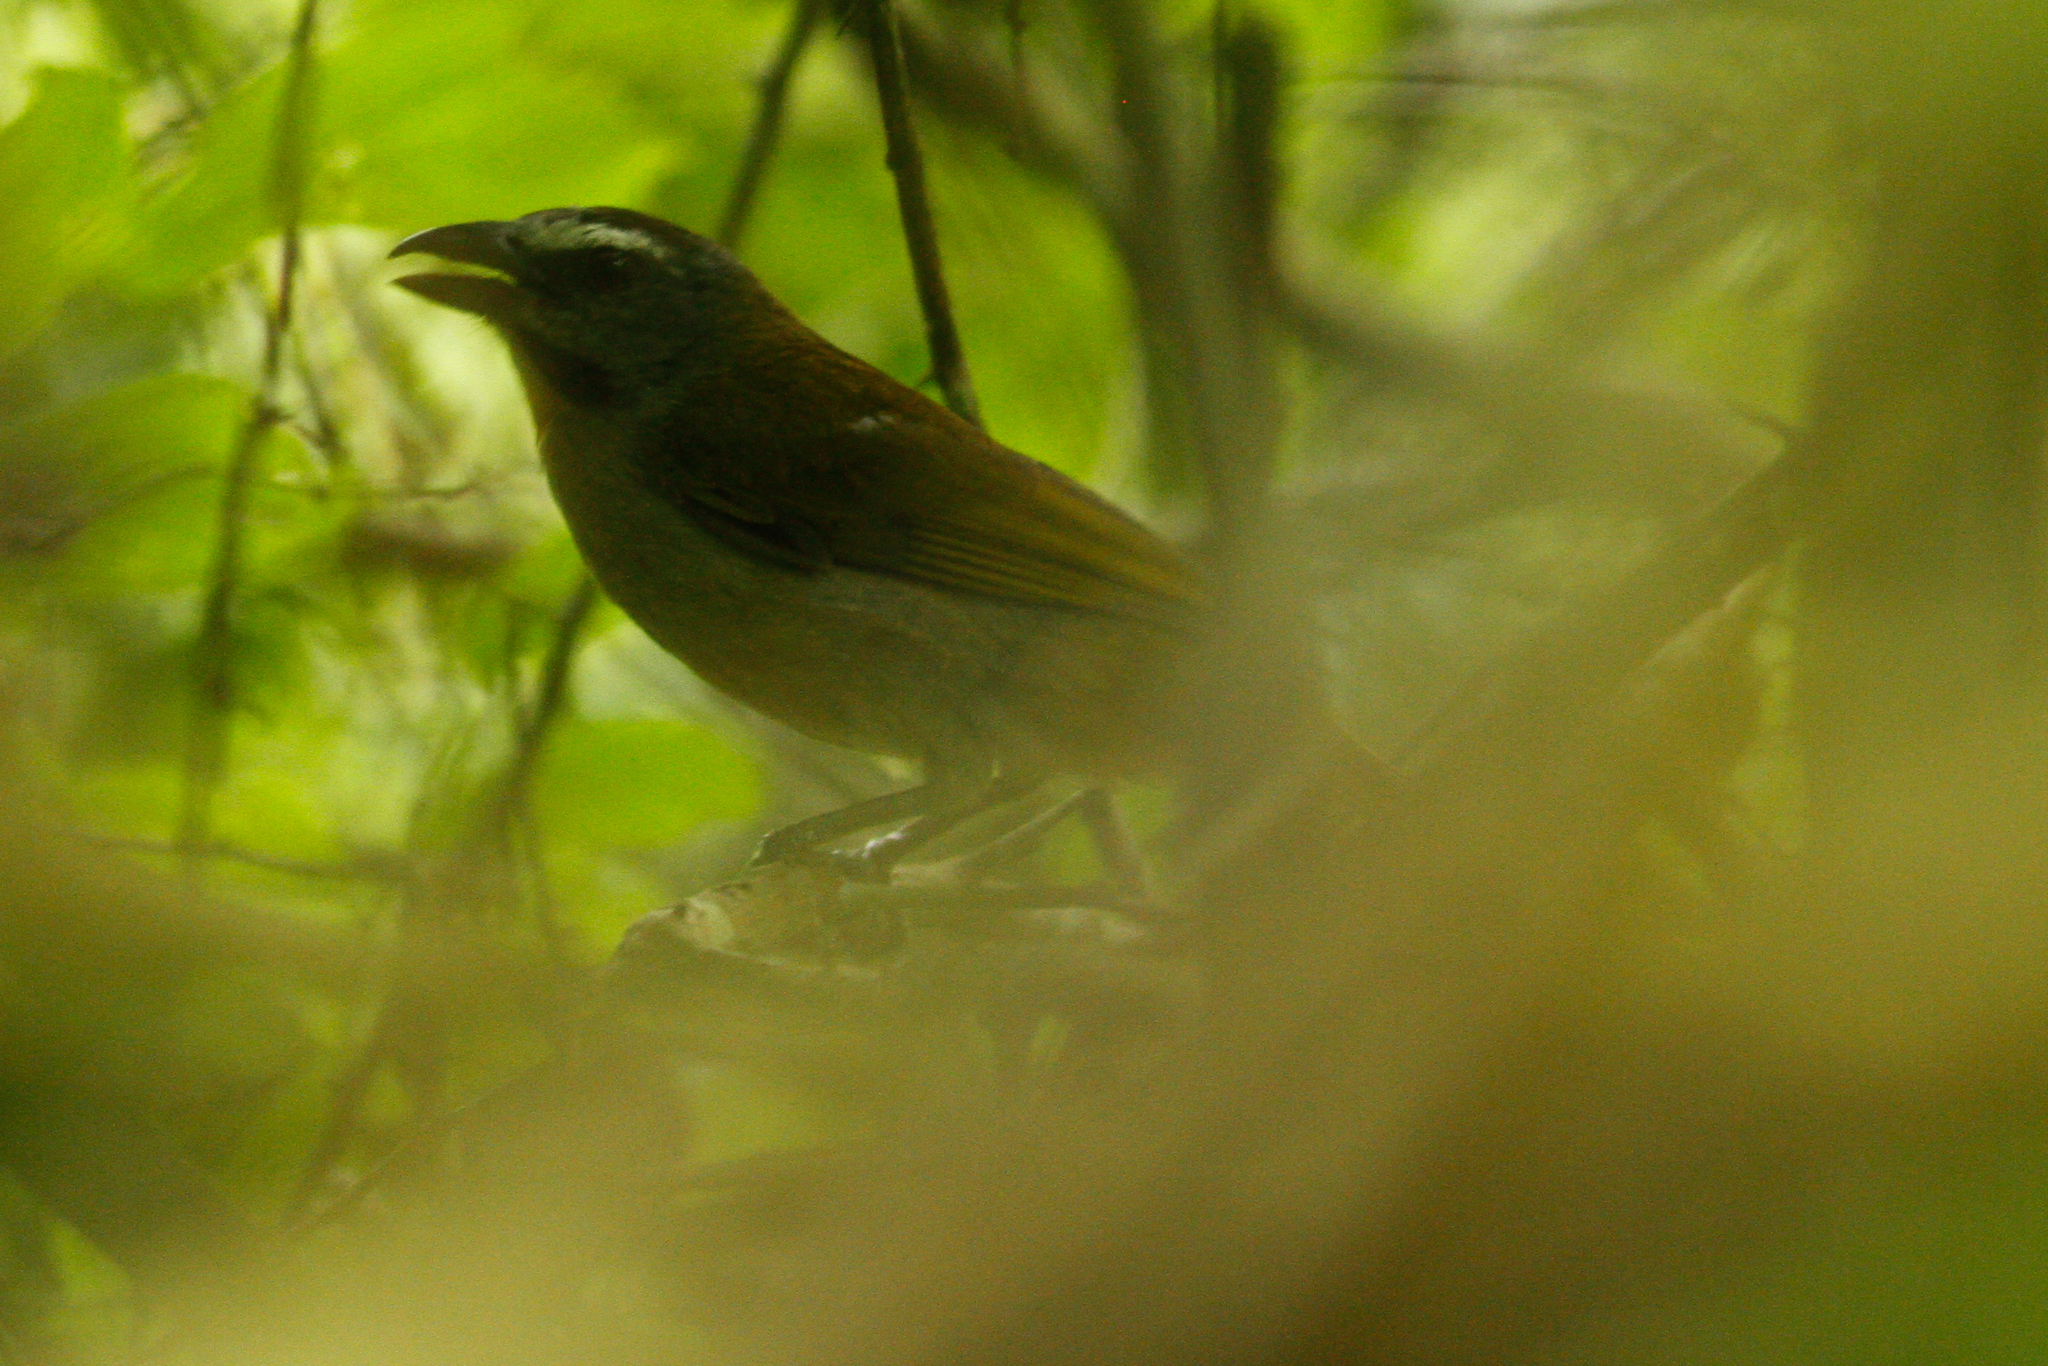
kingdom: Animalia
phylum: Chordata
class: Aves
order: Passeriformes
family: Thraupidae
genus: Saltator
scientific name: Saltator maximus
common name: Buff-throated saltator
